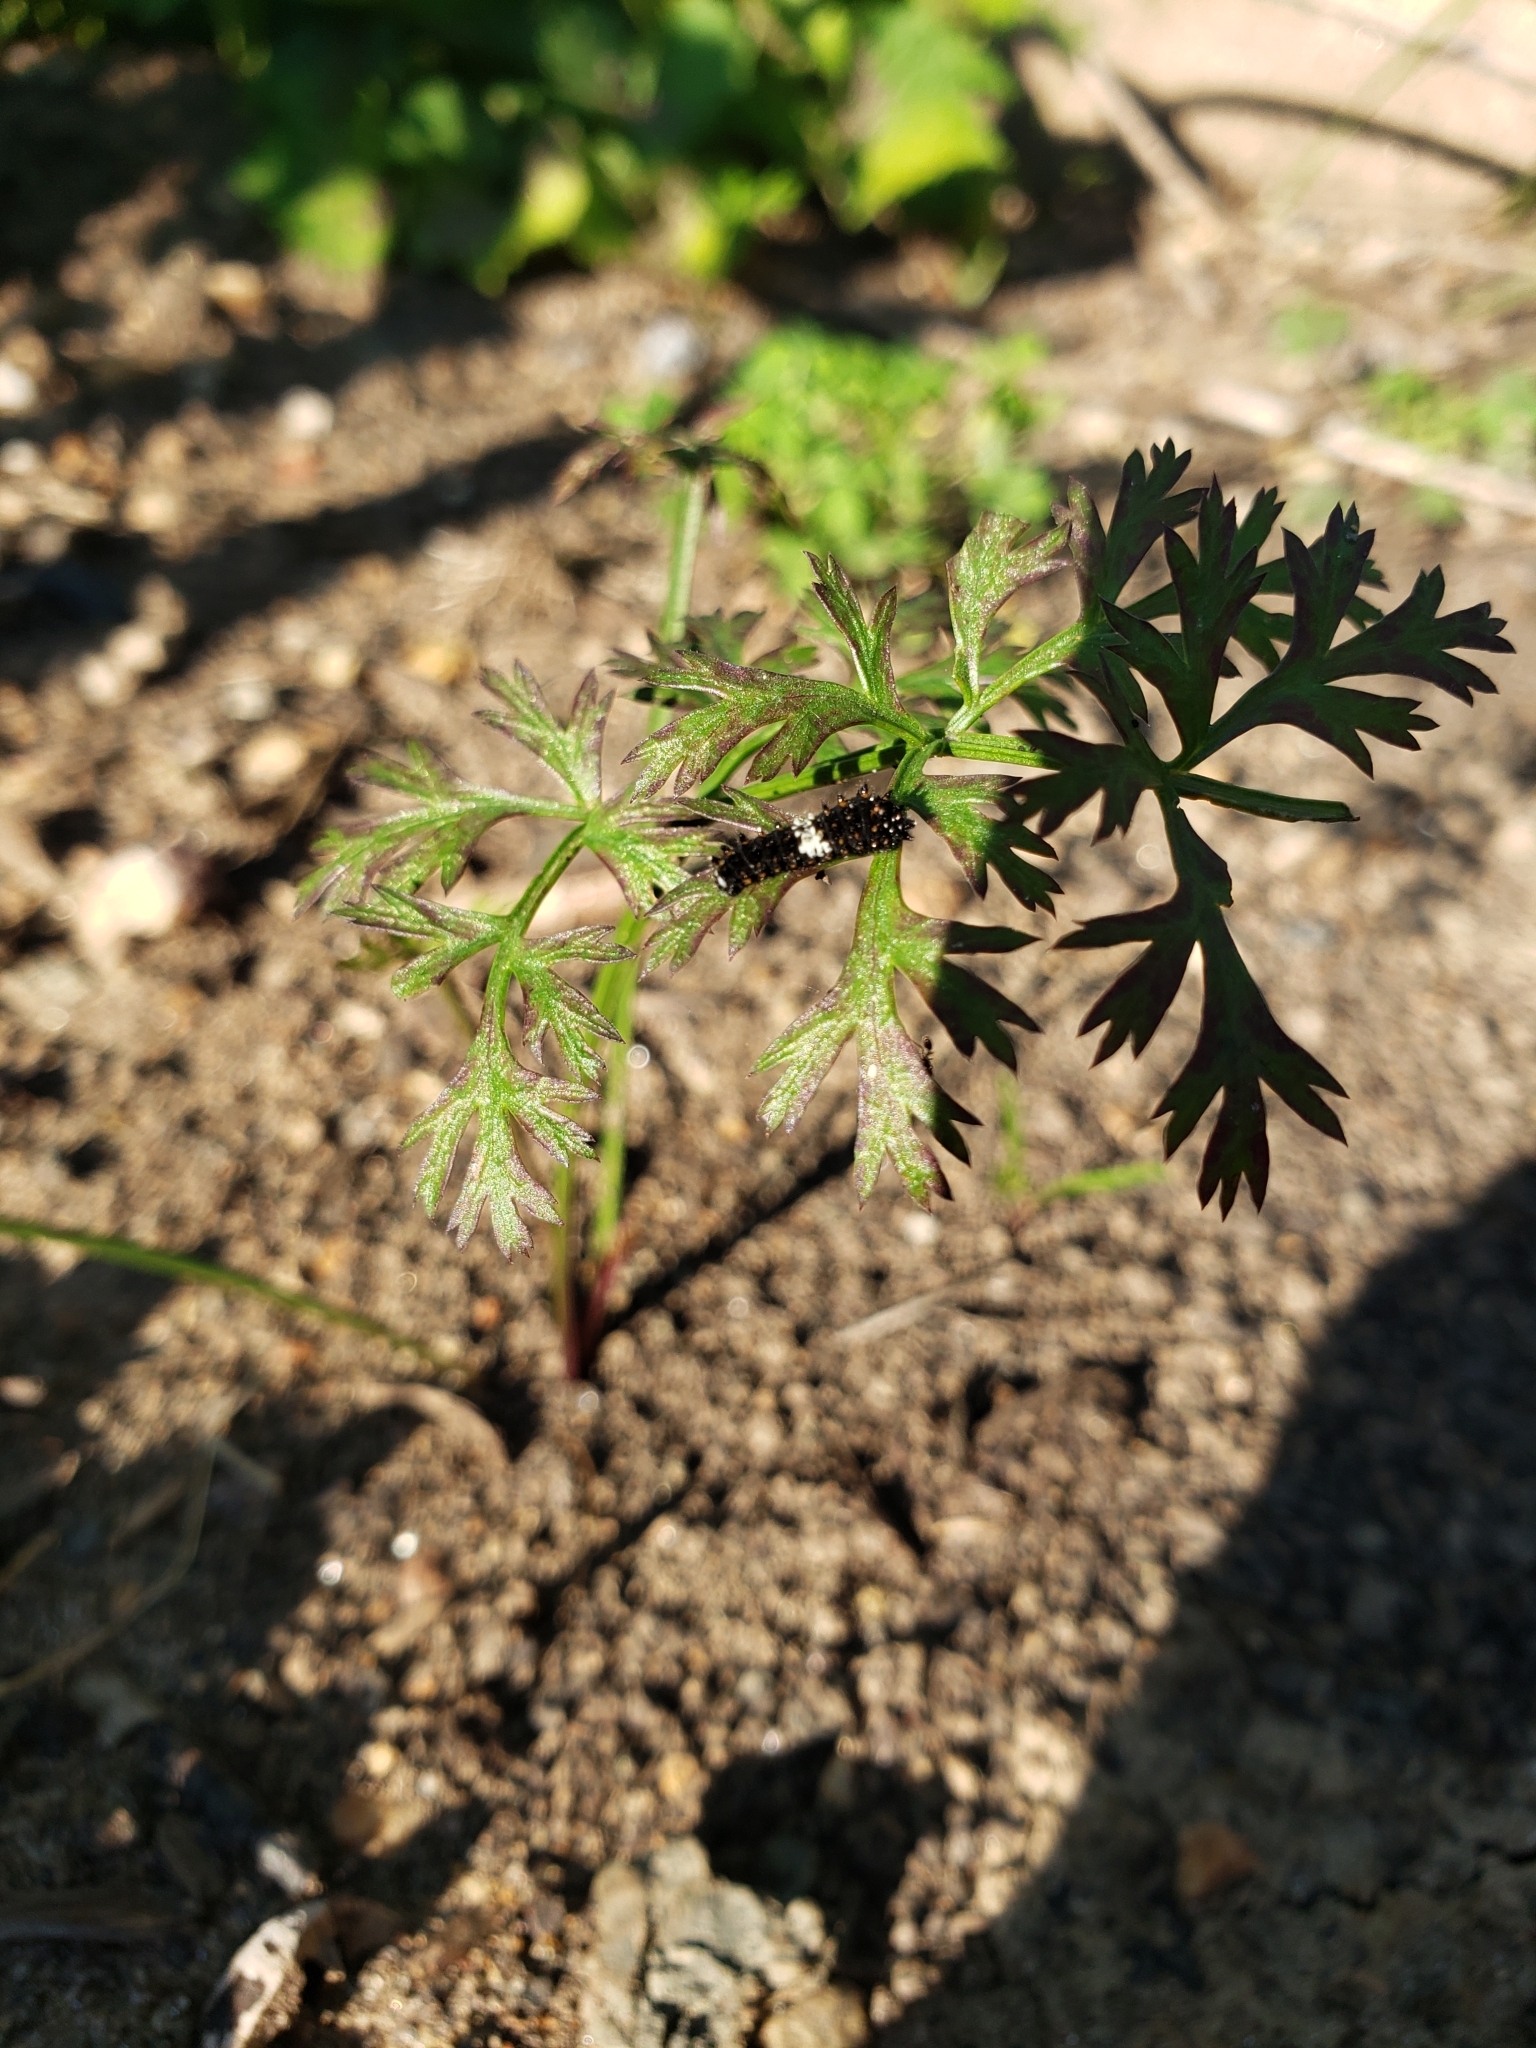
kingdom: Animalia
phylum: Arthropoda
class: Insecta
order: Lepidoptera
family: Papilionidae
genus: Papilio
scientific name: Papilio polyxenes
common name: Black swallowtail
